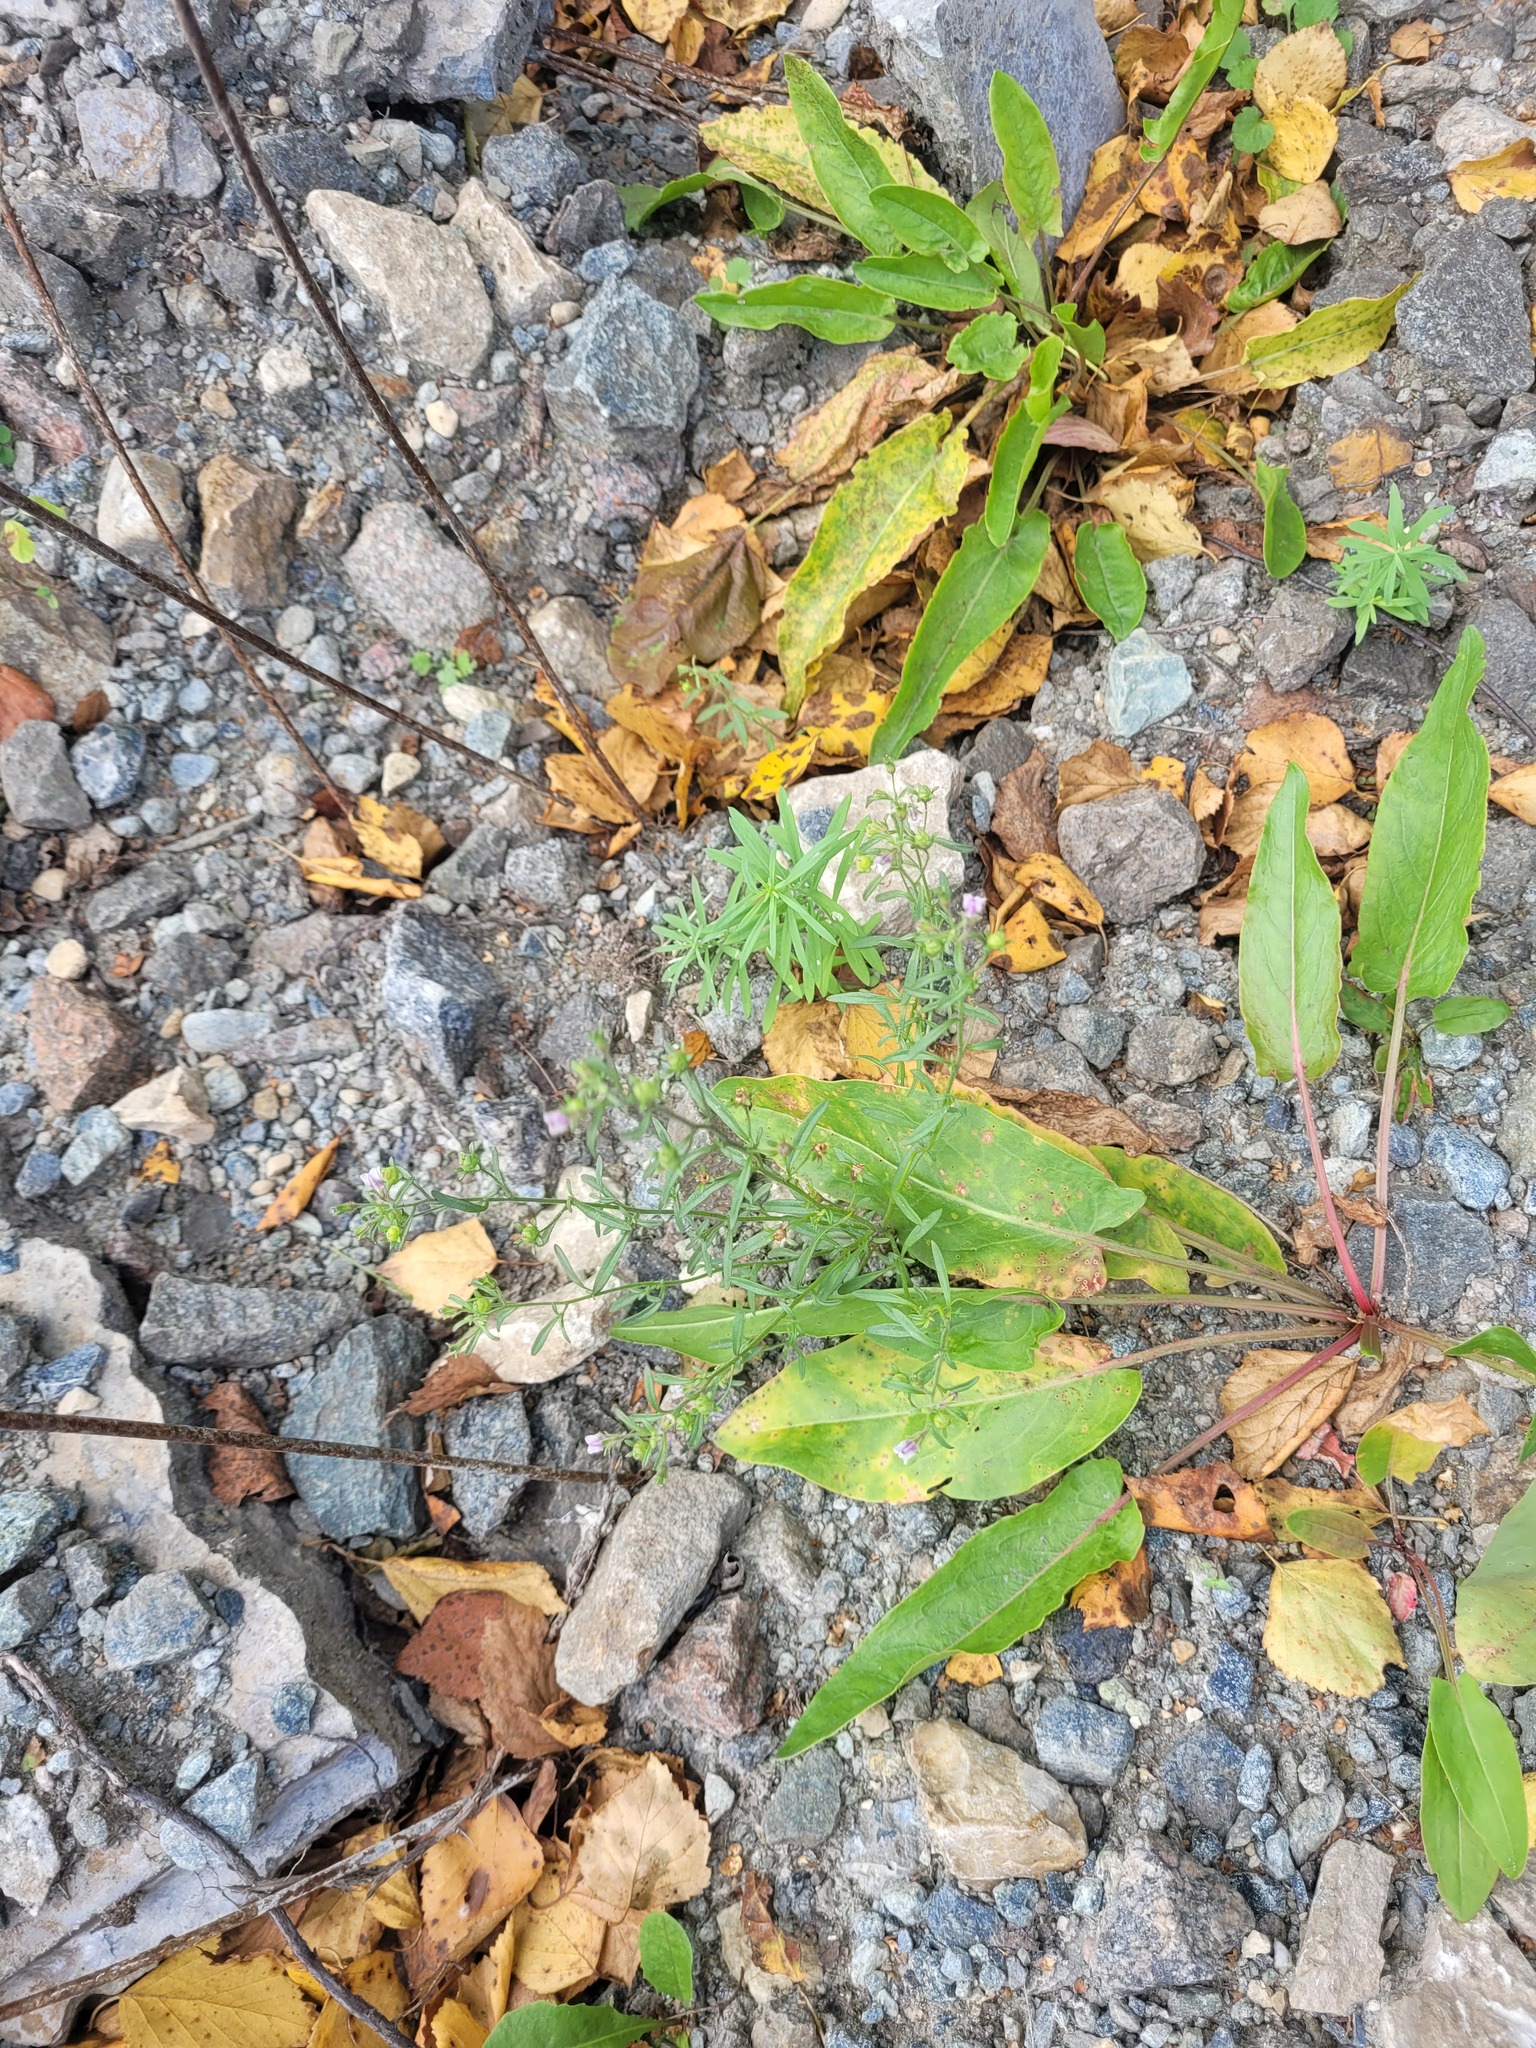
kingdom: Plantae
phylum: Tracheophyta
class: Magnoliopsida
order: Lamiales
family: Plantaginaceae
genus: Chaenorhinum
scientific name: Chaenorhinum minus
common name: Dwarf snapdragon
